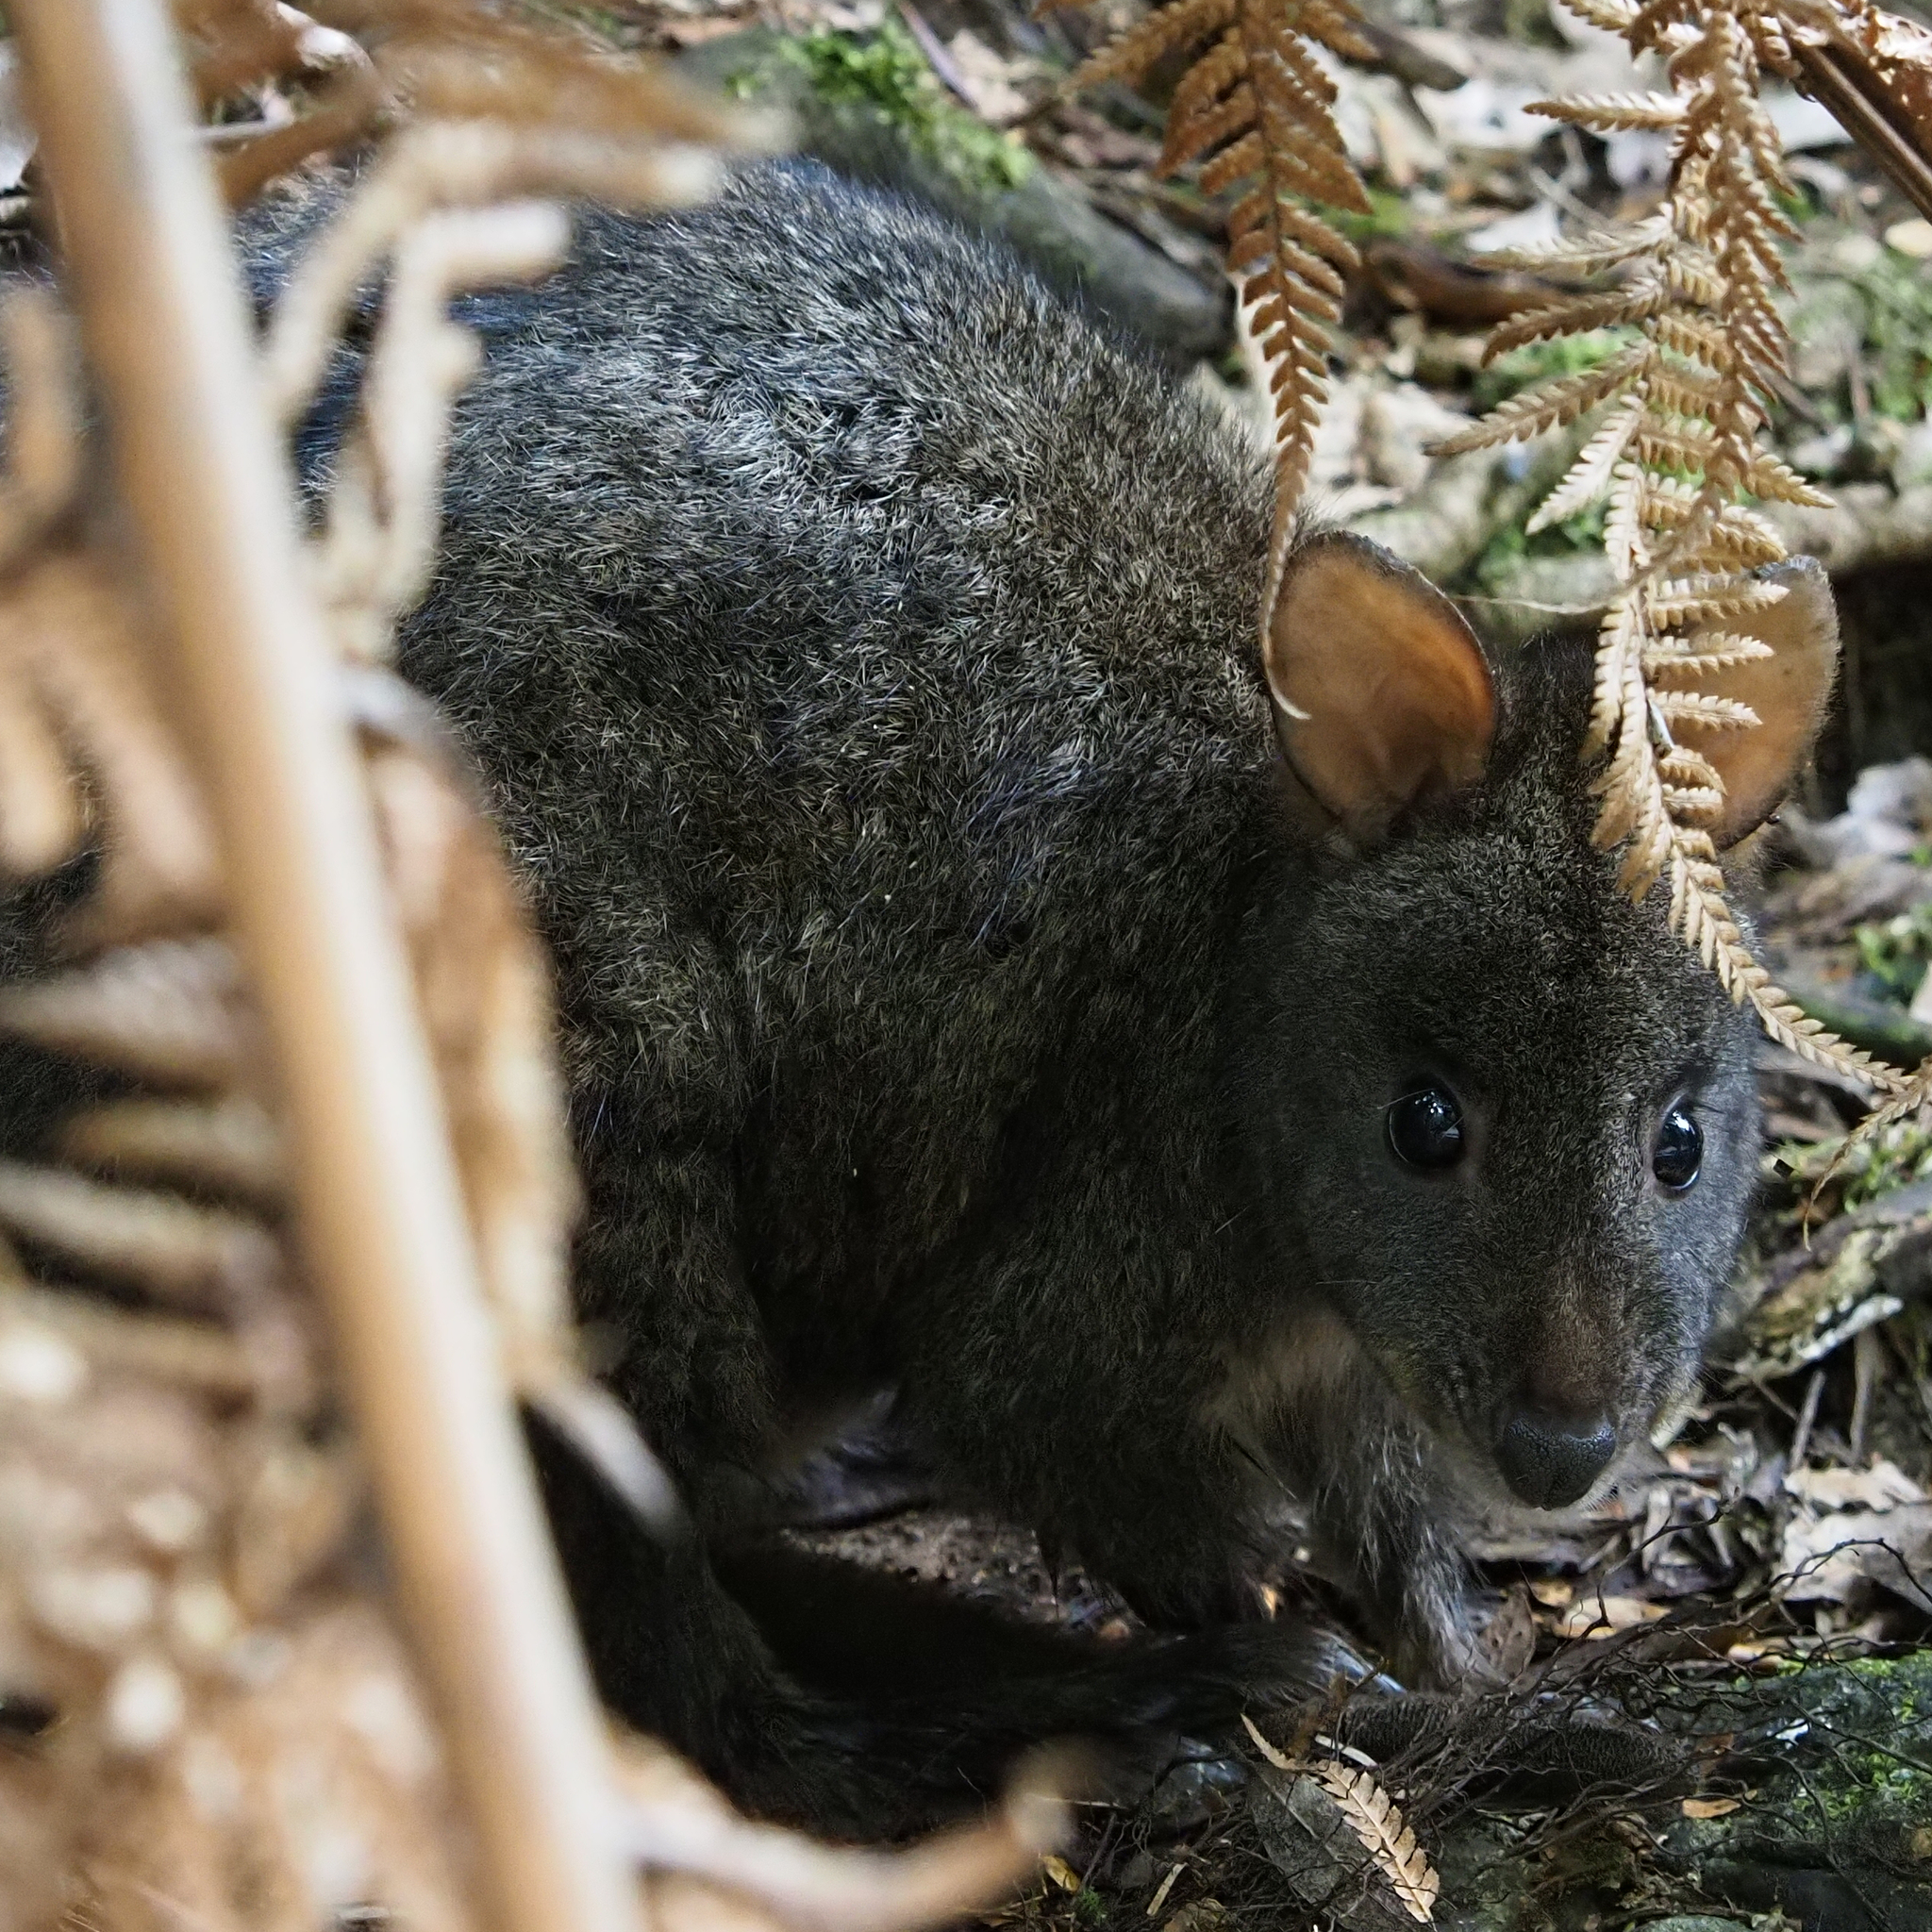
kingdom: Animalia
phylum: Chordata
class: Mammalia
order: Diprotodontia
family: Macropodidae
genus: Thylogale
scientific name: Thylogale billardierii
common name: Tasmanian pademelon
